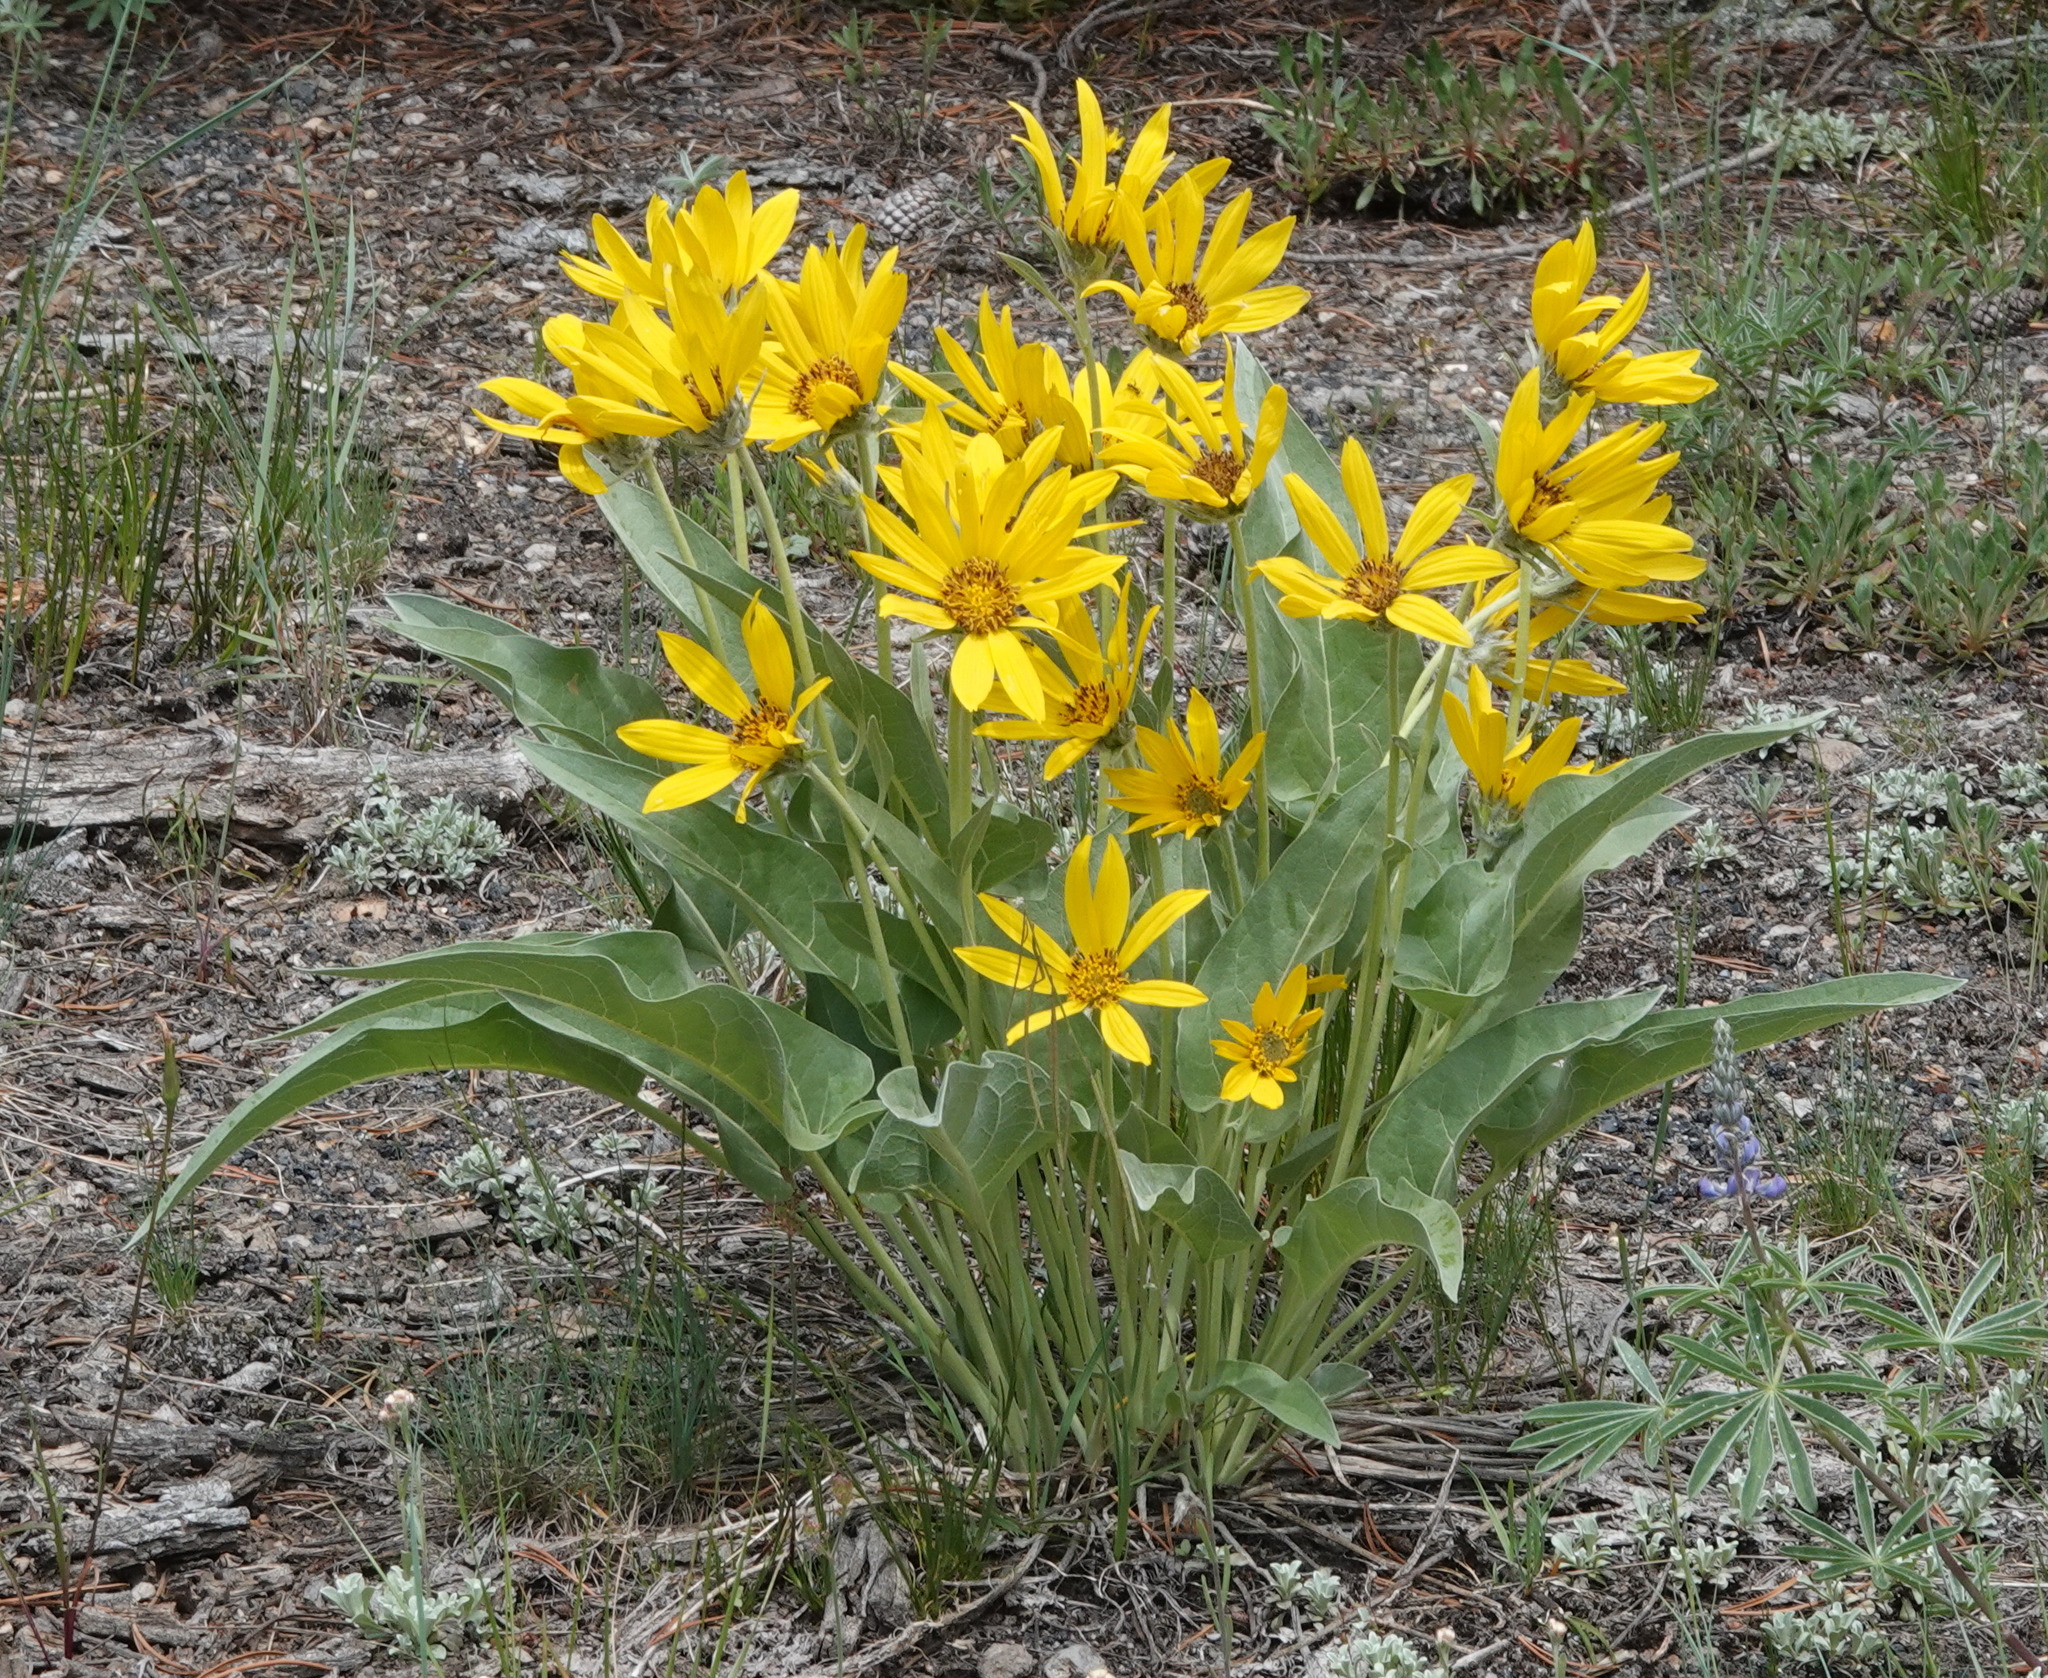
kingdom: Plantae
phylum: Tracheophyta
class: Magnoliopsida
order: Asterales
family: Asteraceae
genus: Wyethia
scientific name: Wyethia sagittata
